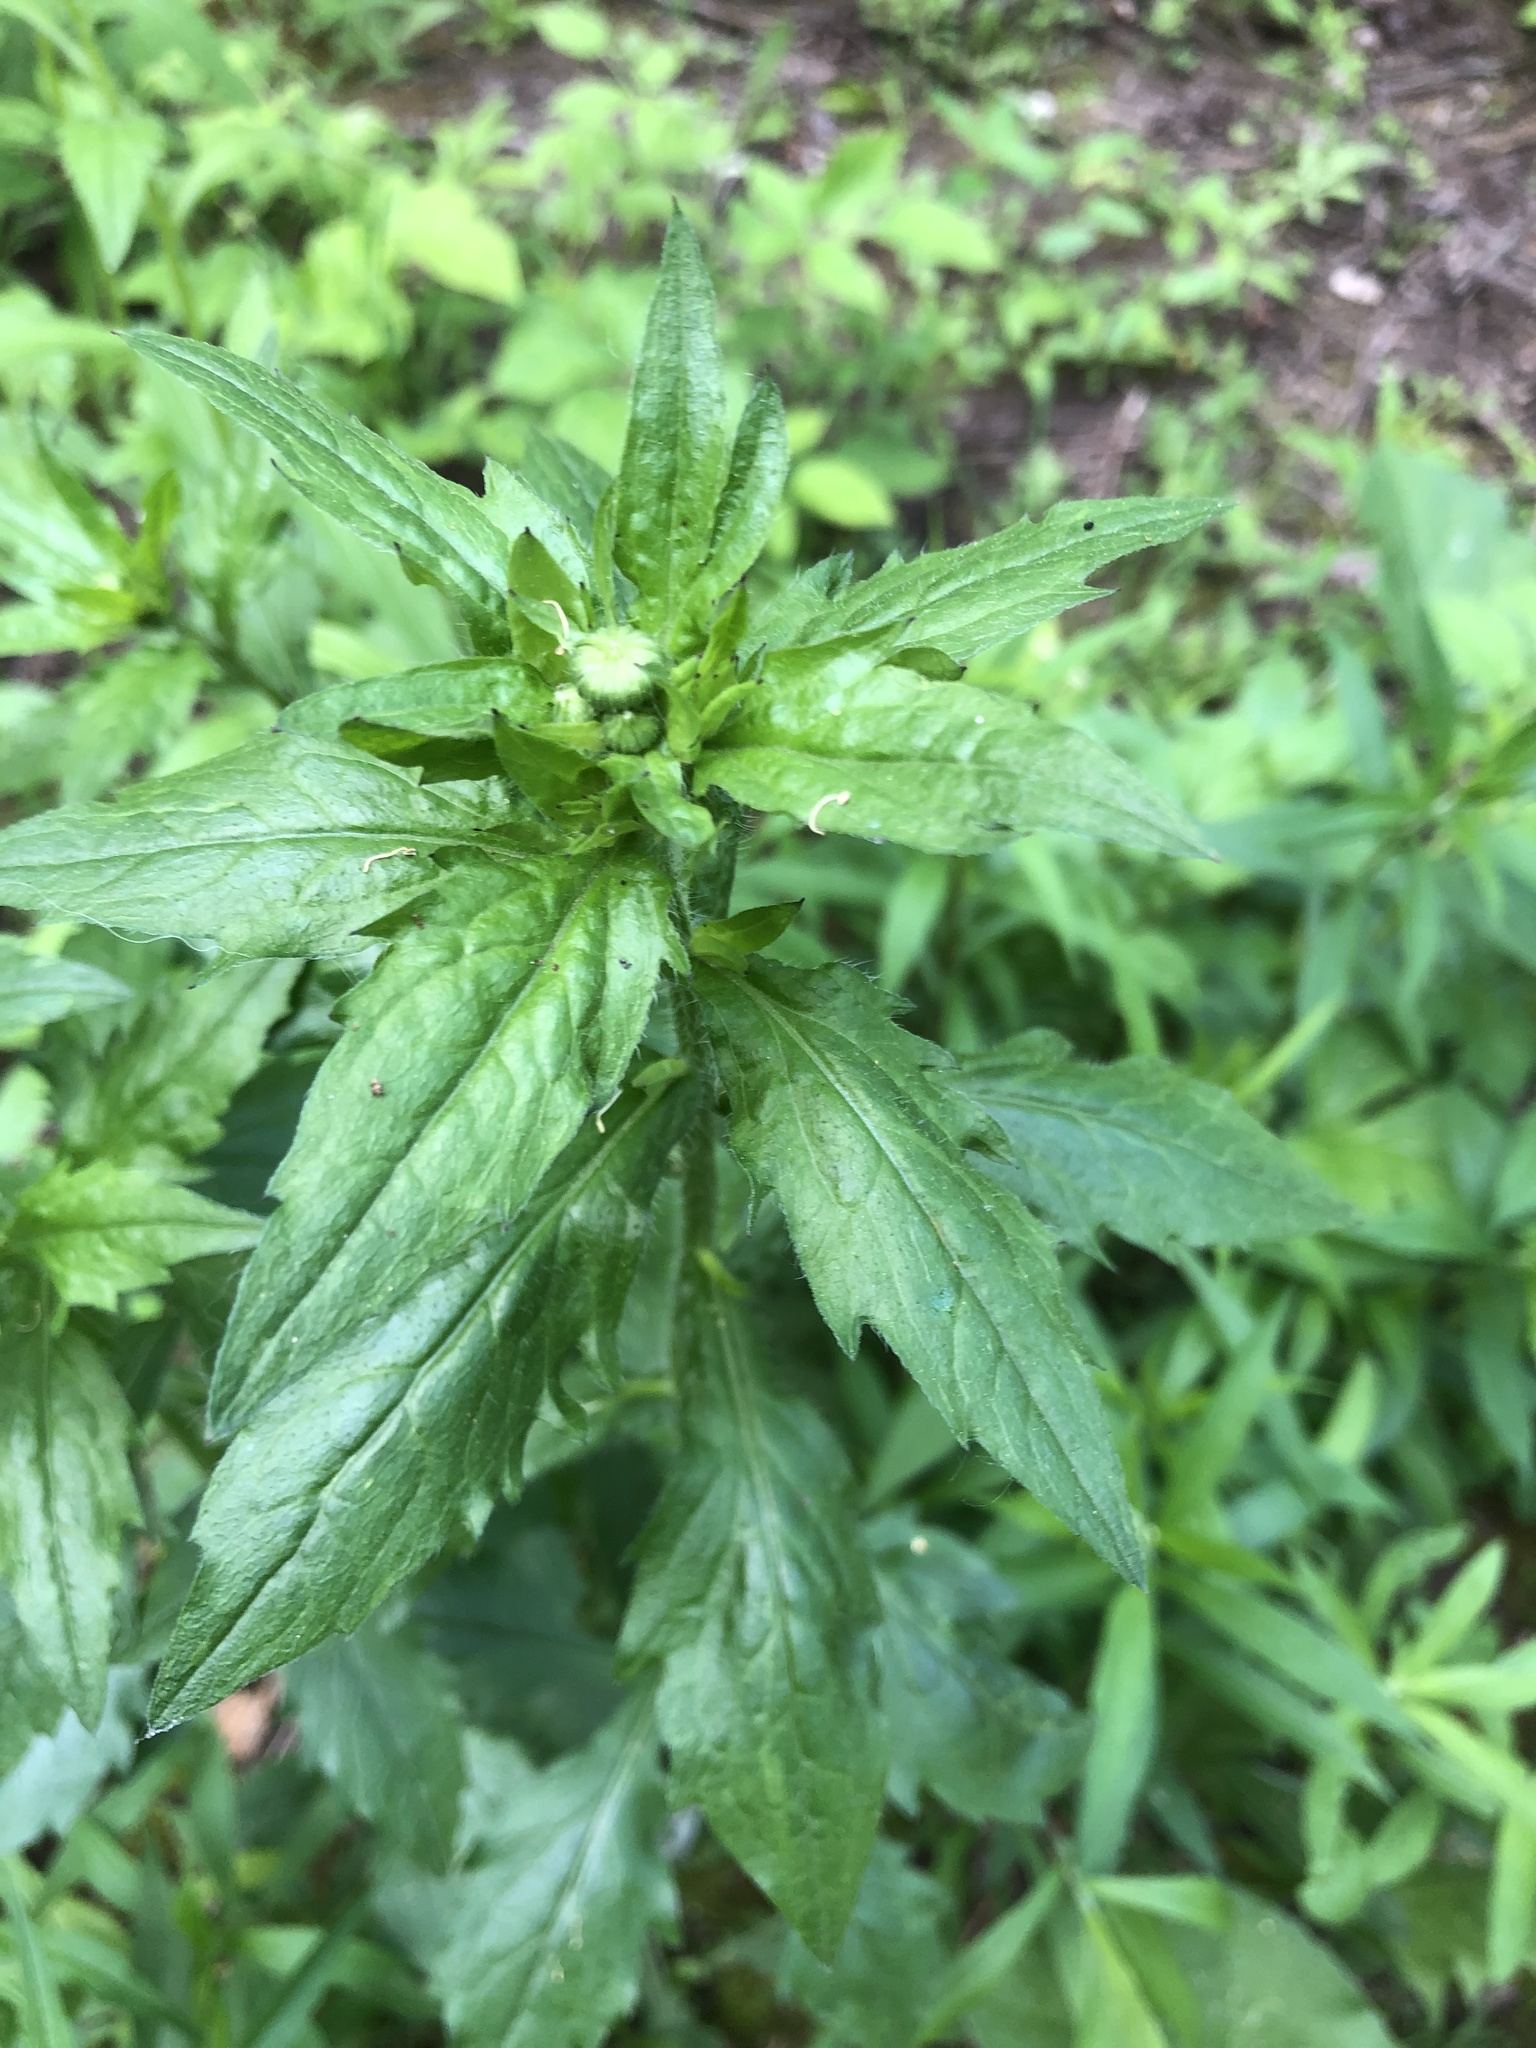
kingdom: Plantae
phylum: Tracheophyta
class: Magnoliopsida
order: Asterales
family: Asteraceae
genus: Erigeron
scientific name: Erigeron annuus
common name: Tall fleabane
